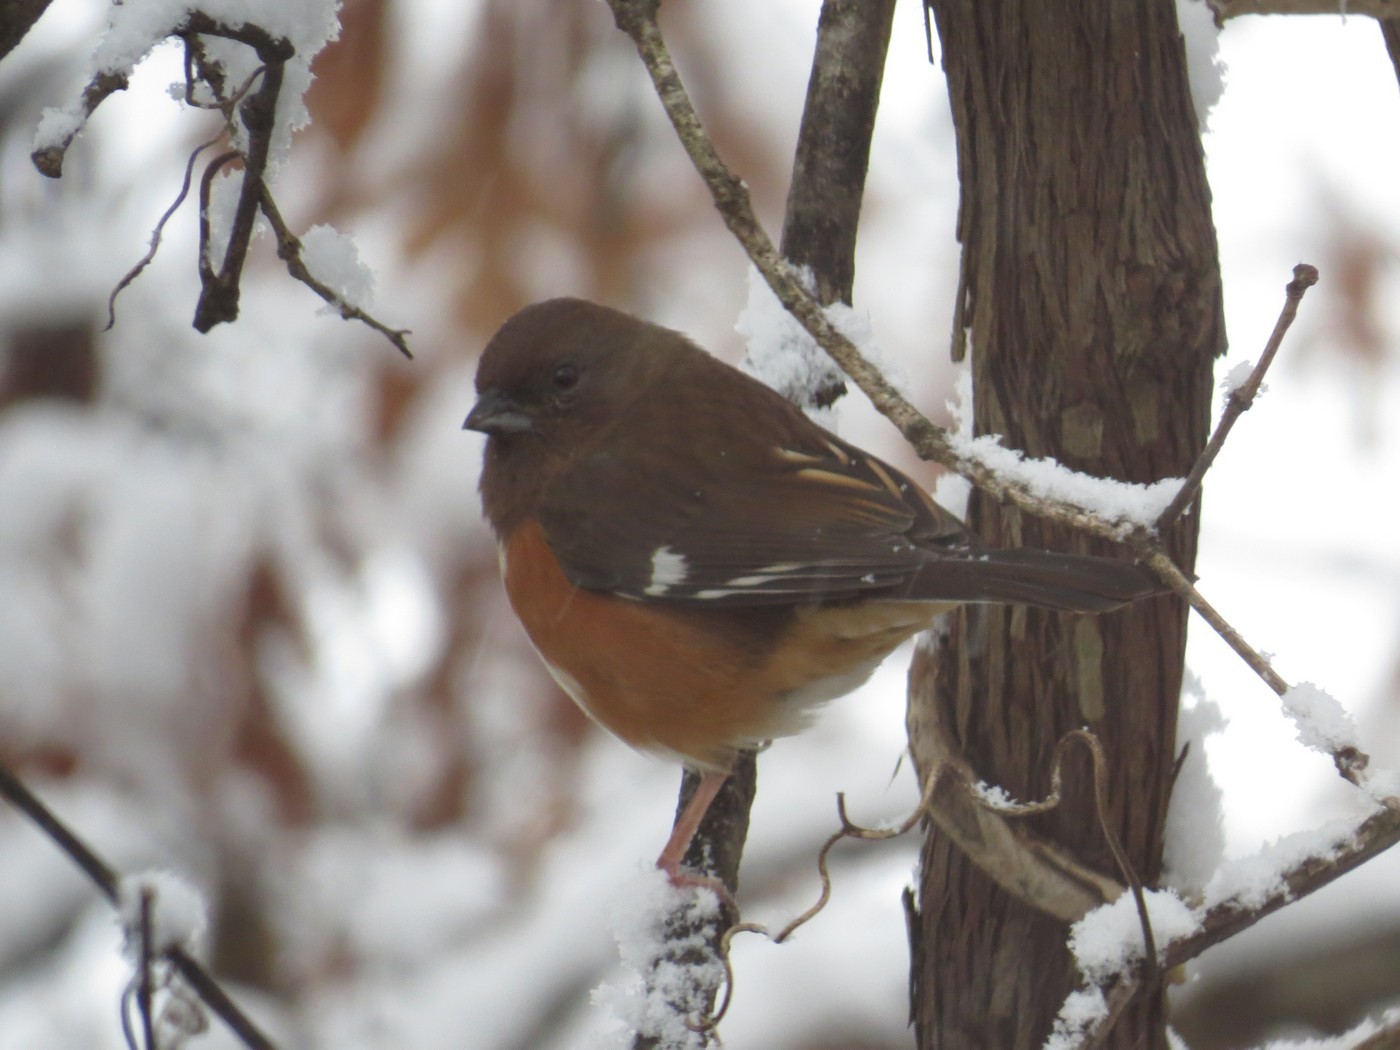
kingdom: Animalia
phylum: Chordata
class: Aves
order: Passeriformes
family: Passerellidae
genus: Pipilo
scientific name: Pipilo erythrophthalmus
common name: Eastern towhee
